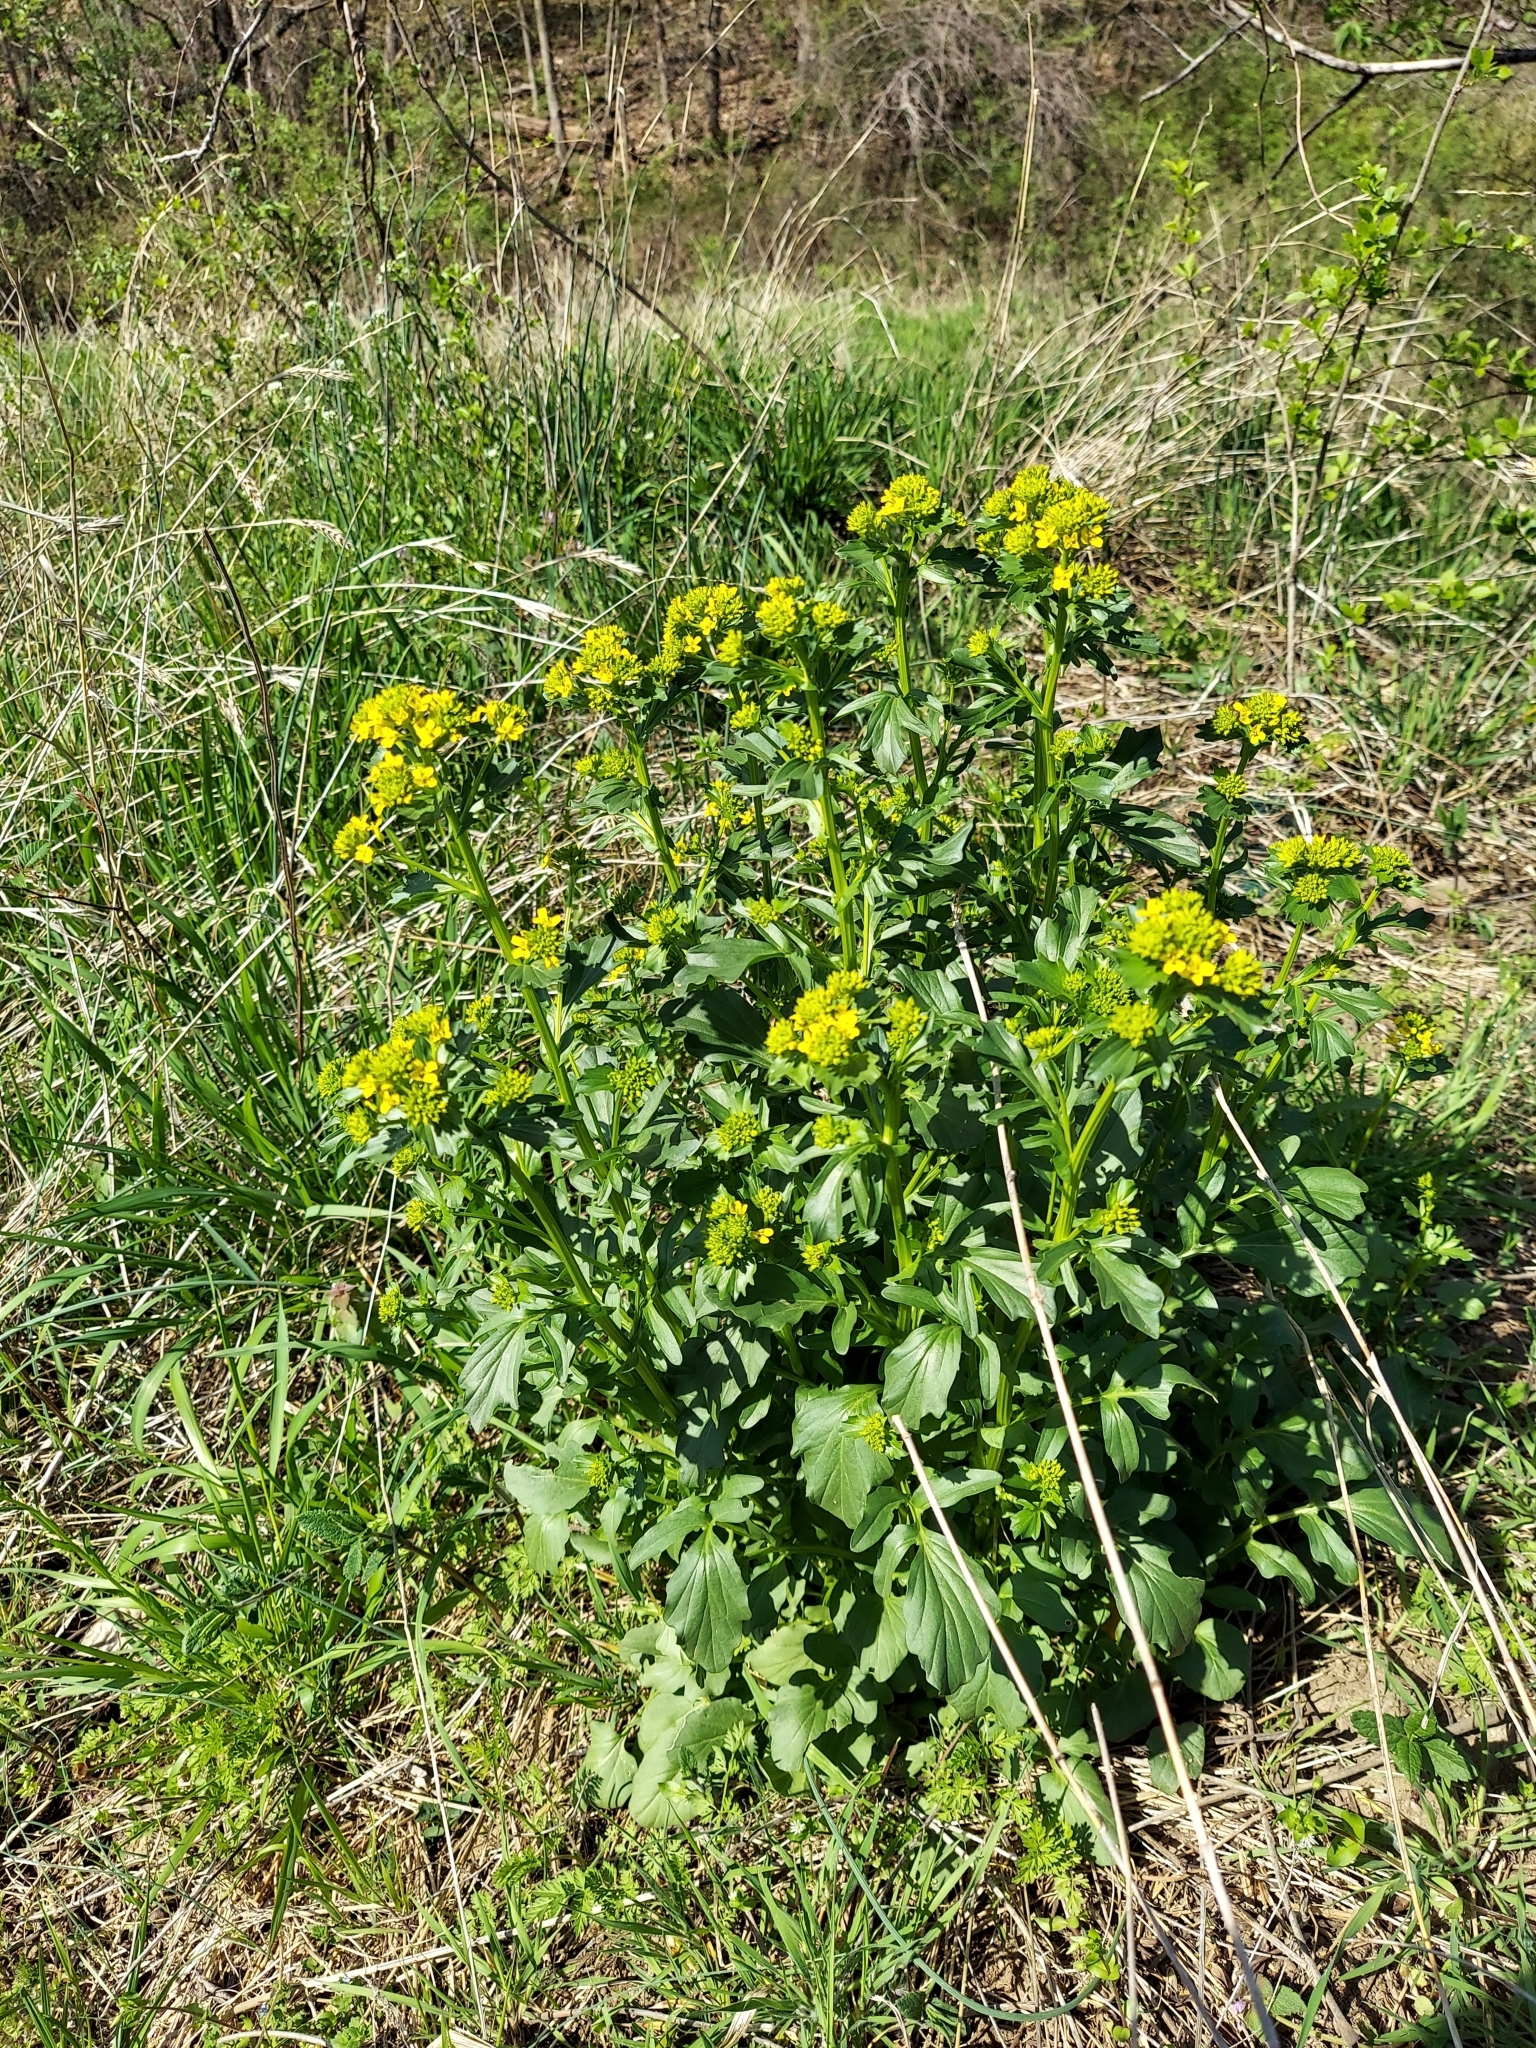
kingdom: Plantae
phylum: Tracheophyta
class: Magnoliopsida
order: Brassicales
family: Brassicaceae
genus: Barbarea
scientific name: Barbarea vulgaris
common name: Cressy-greens
